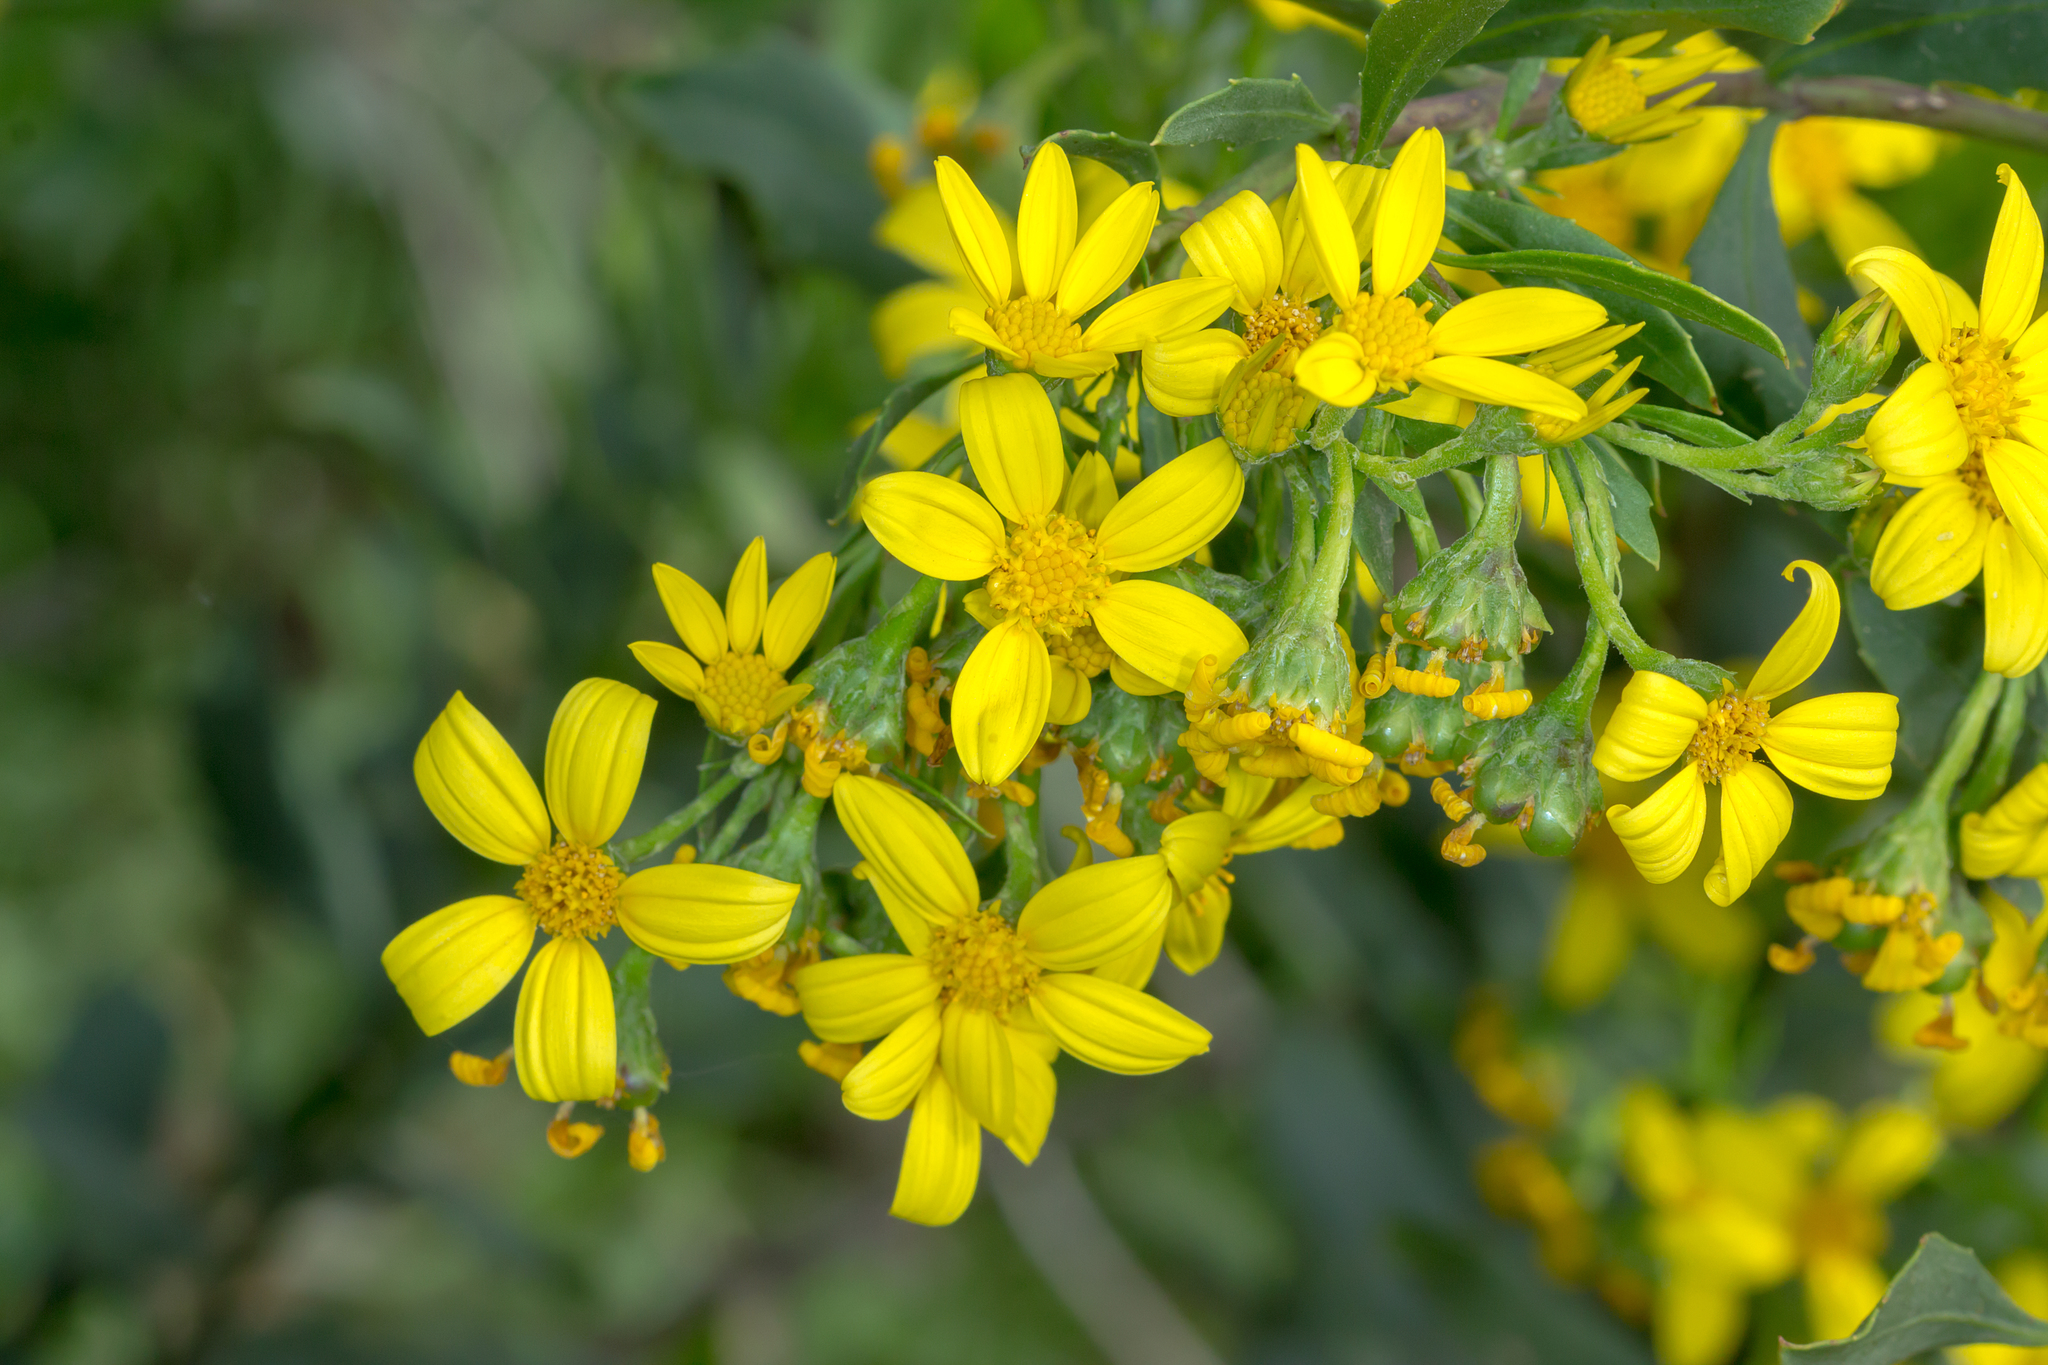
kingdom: Plantae
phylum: Tracheophyta
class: Magnoliopsida
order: Asterales
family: Asteraceae
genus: Osteospermum
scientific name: Osteospermum moniliferum
